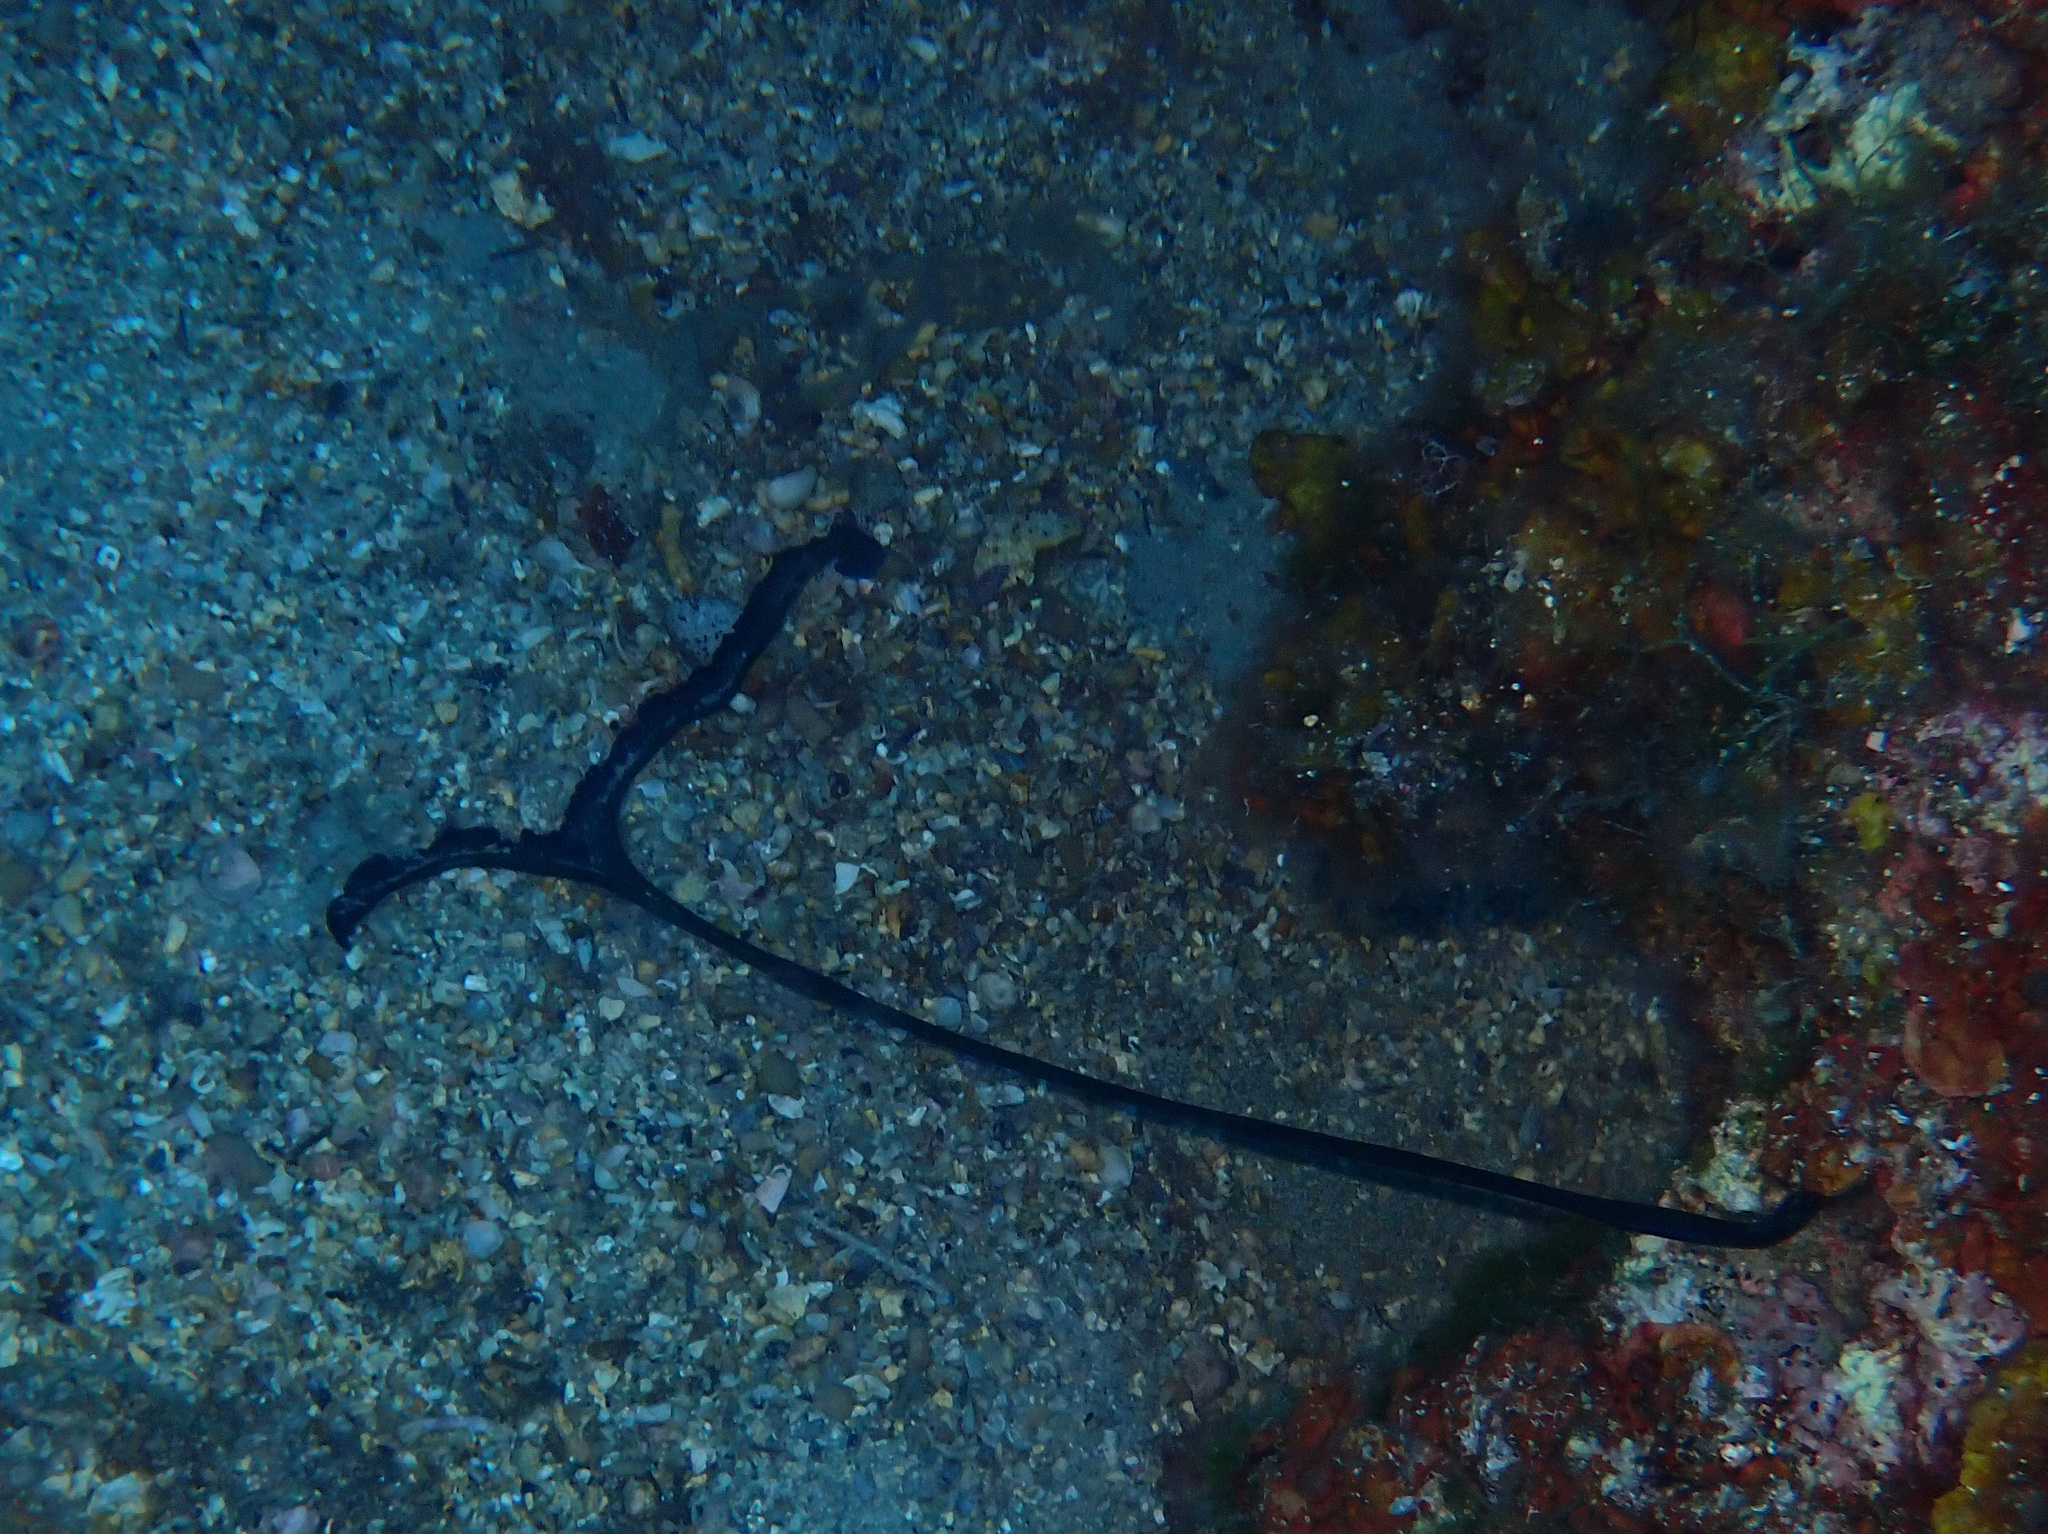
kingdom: Animalia
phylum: Annelida
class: Polychaeta
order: Echiuroidea
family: Bonelliidae
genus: Bonellia
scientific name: Bonellia viridis
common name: Green spoon worm
